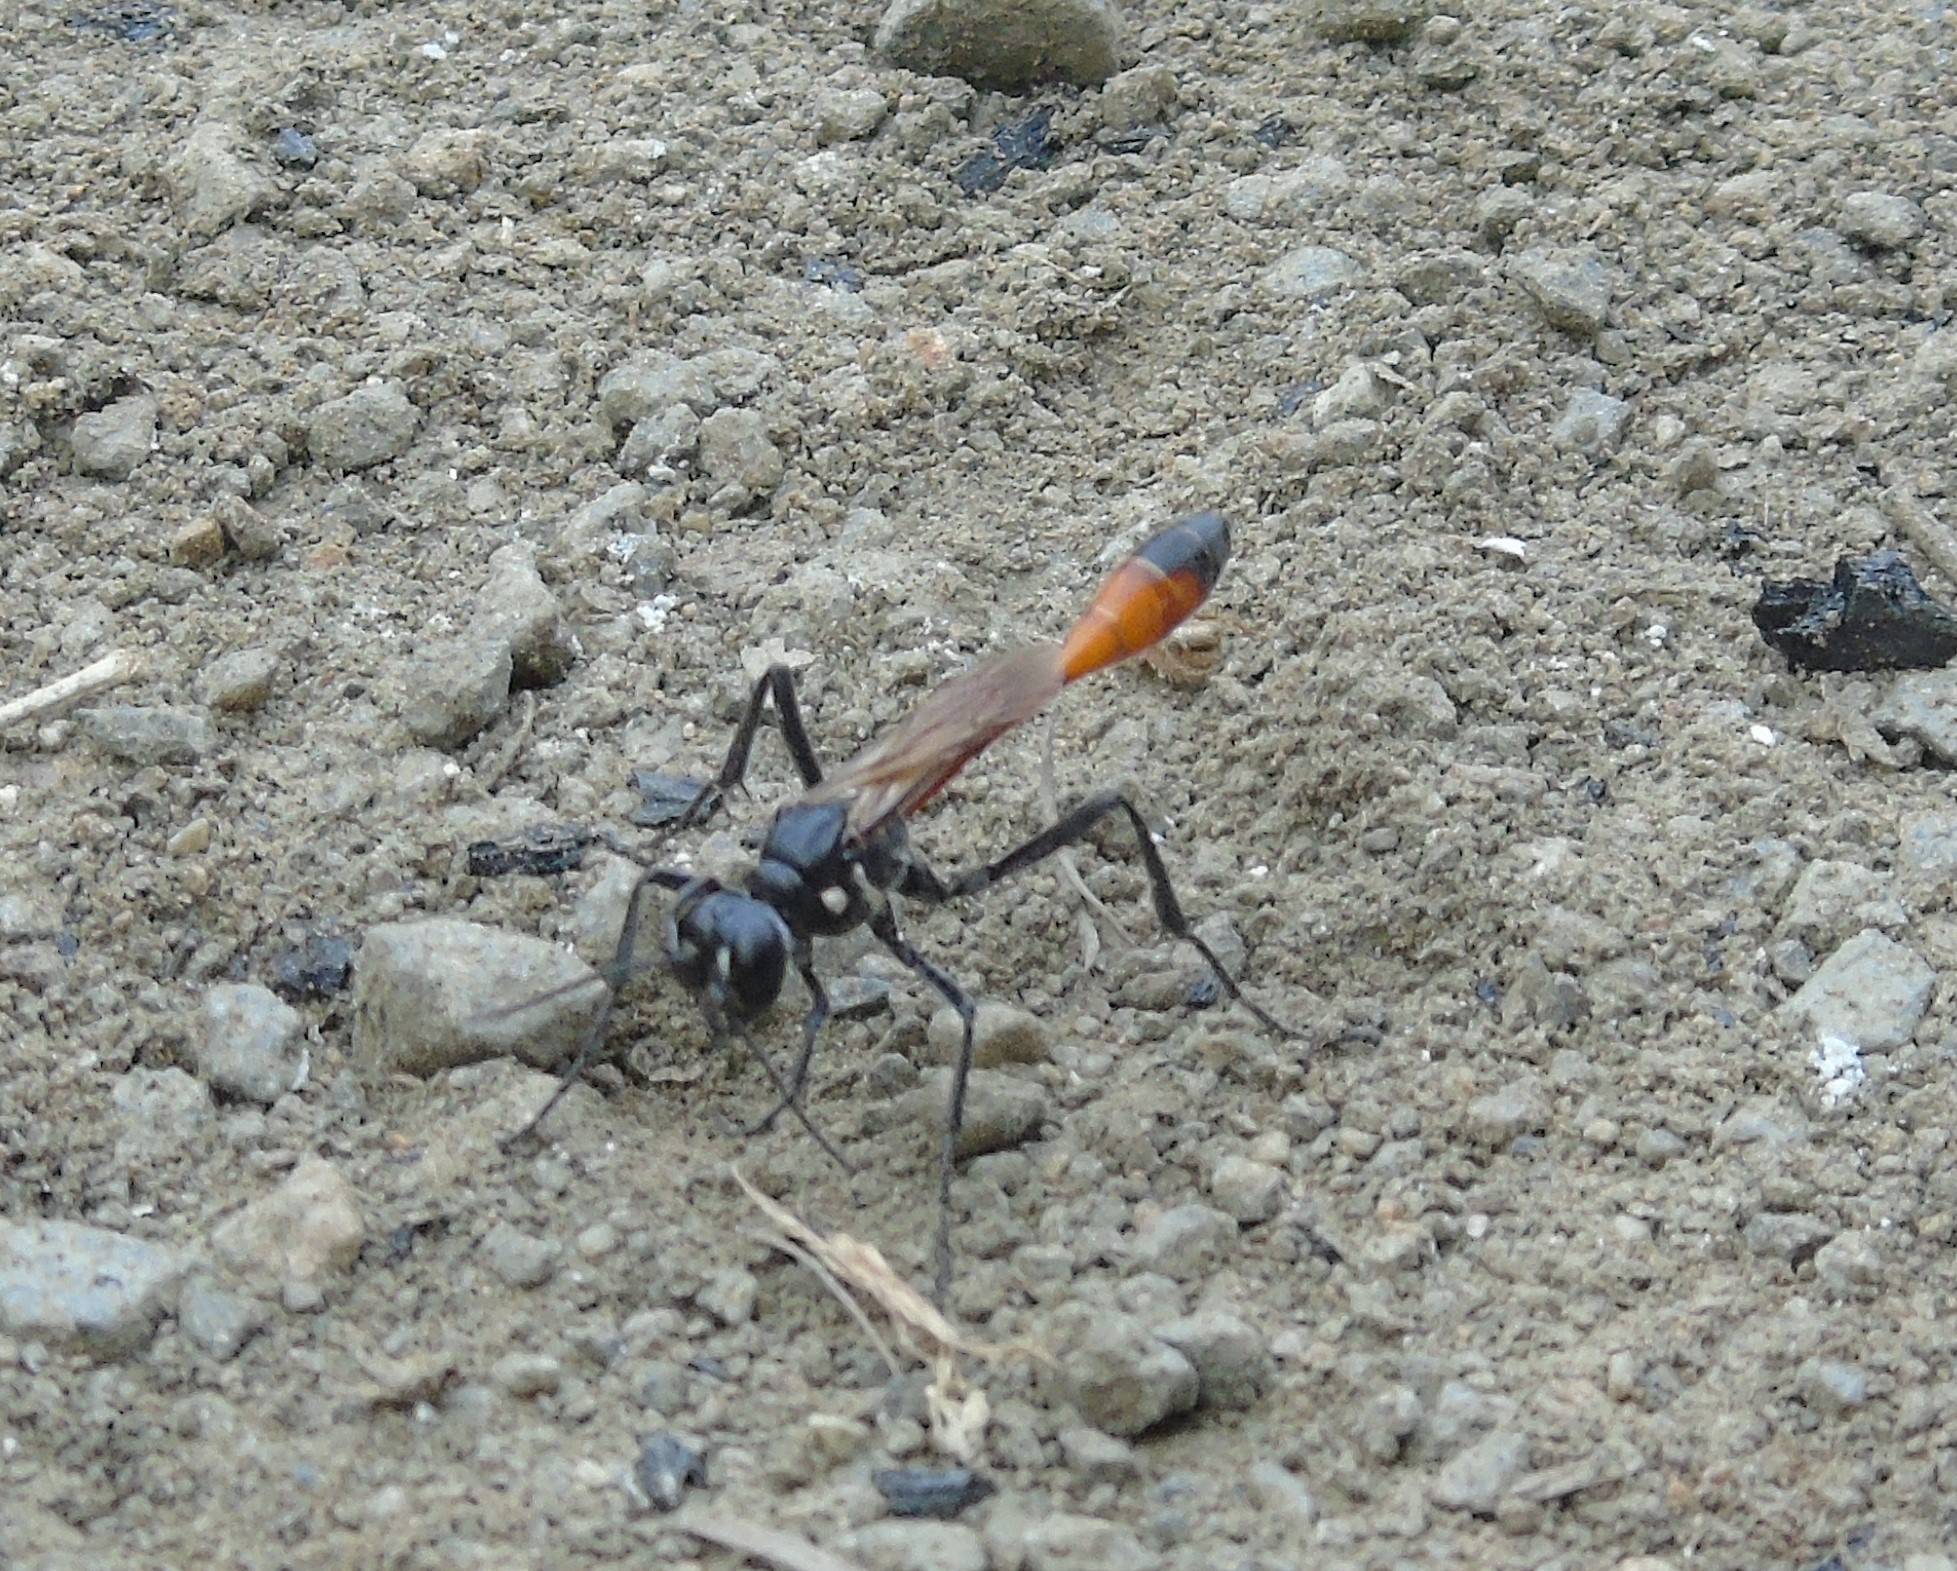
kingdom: Animalia
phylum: Arthropoda
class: Insecta
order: Hymenoptera
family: Sphecidae
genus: Ammophila
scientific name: Ammophila
